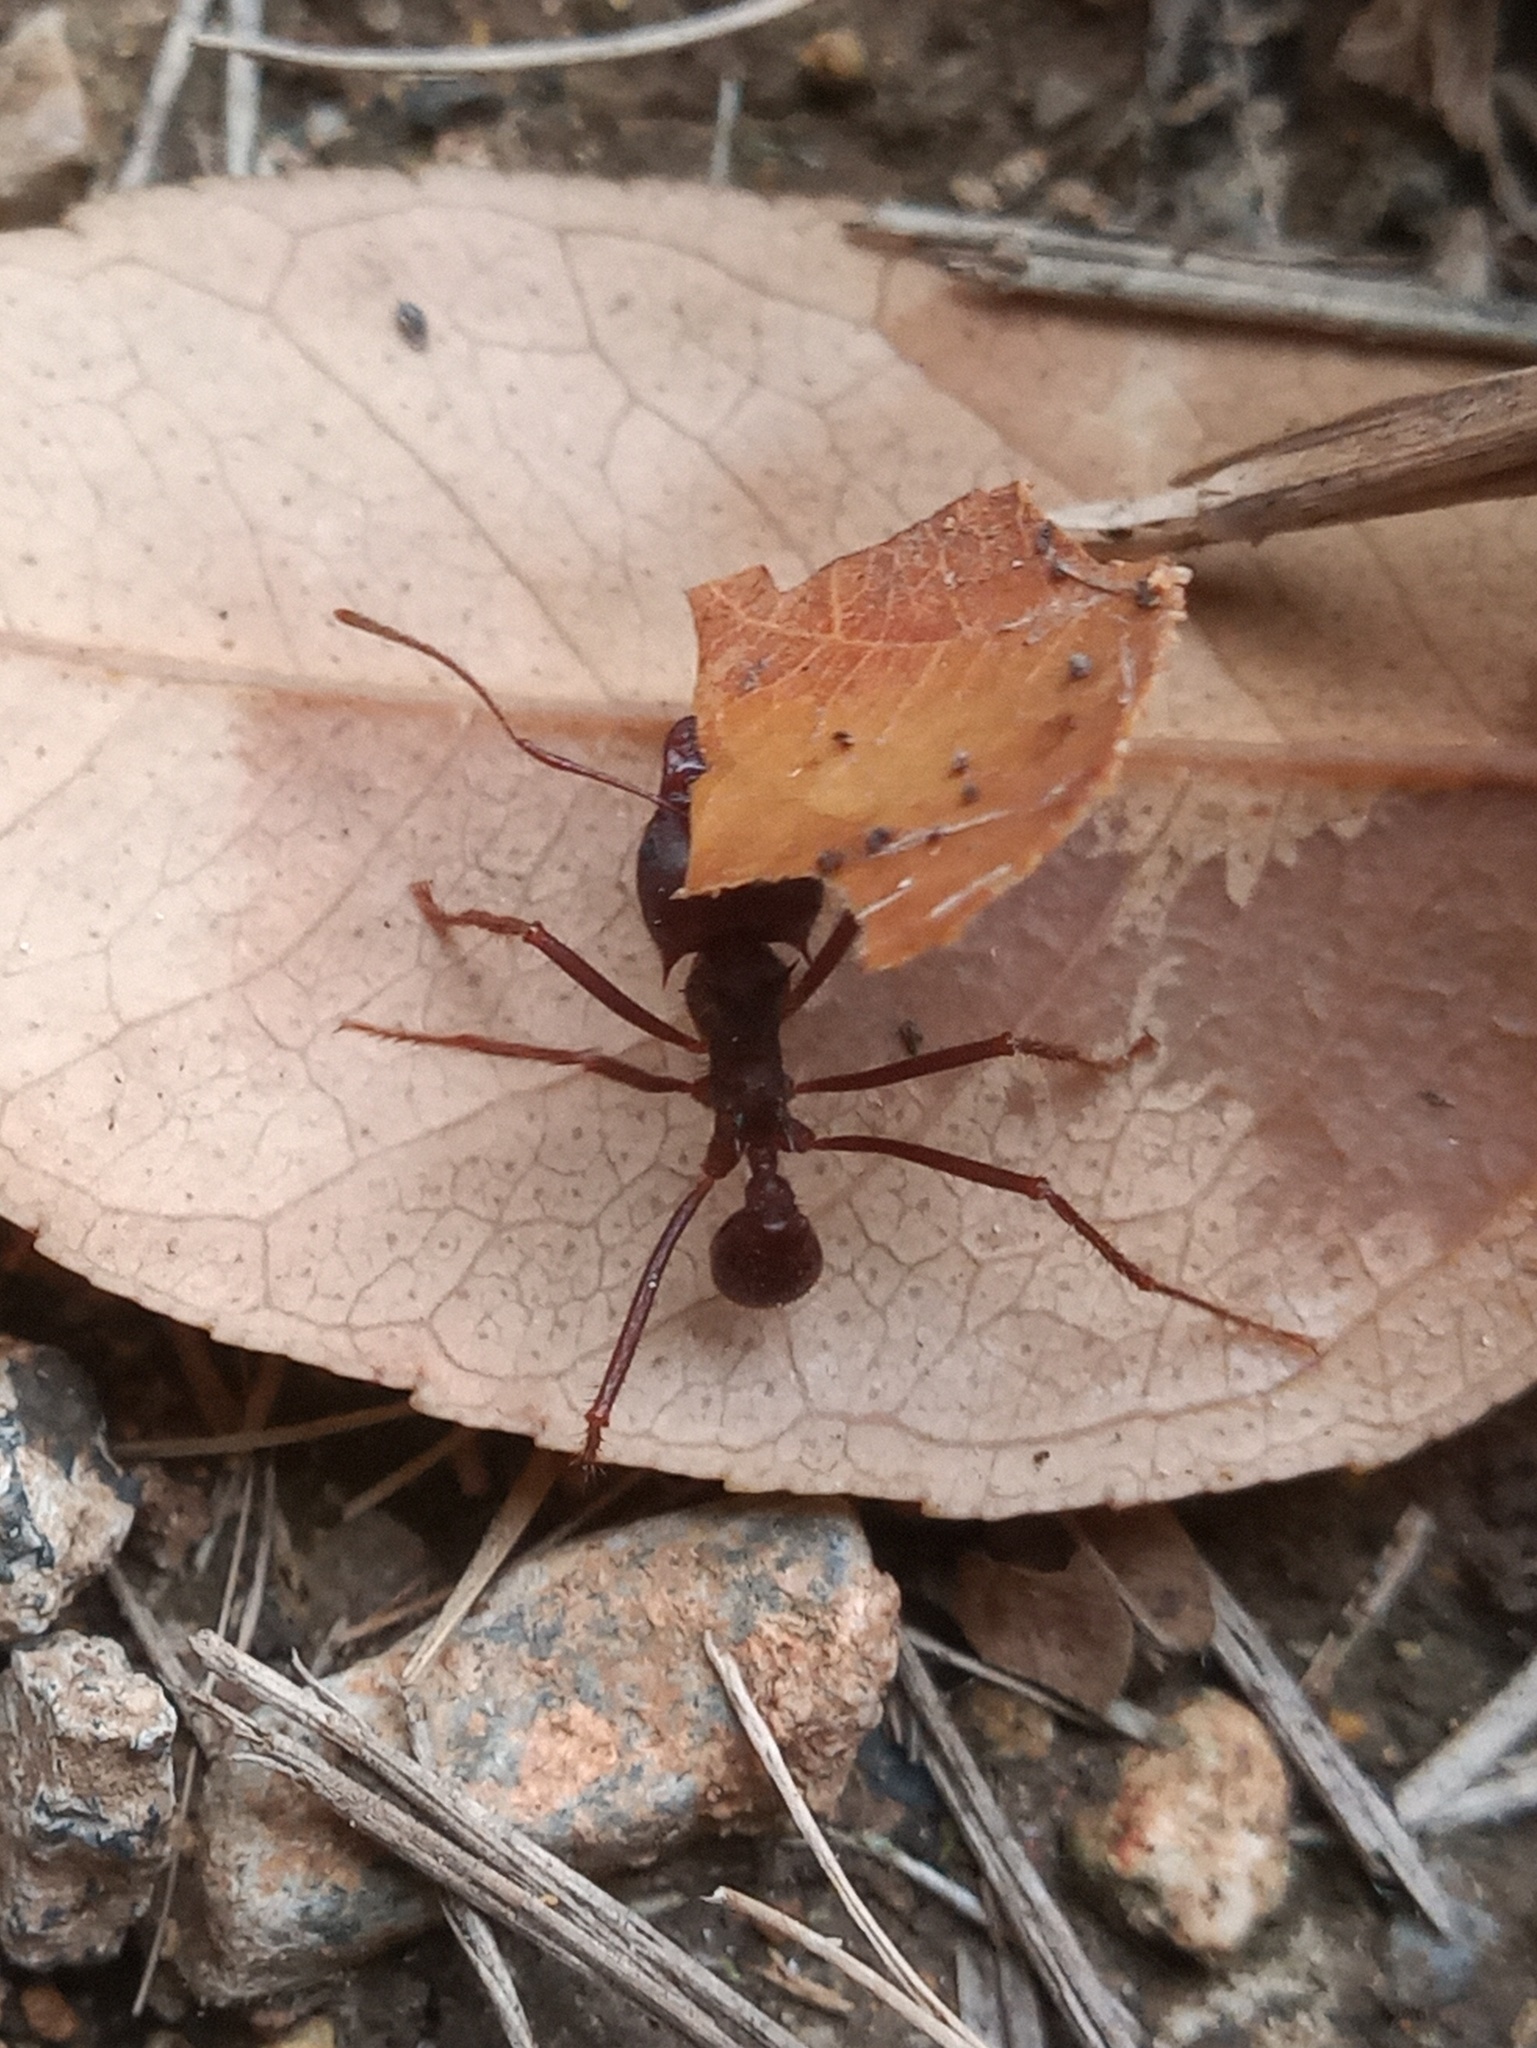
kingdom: Animalia
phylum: Arthropoda
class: Insecta
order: Hymenoptera
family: Formicidae
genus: Atta
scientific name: Atta mexicana
